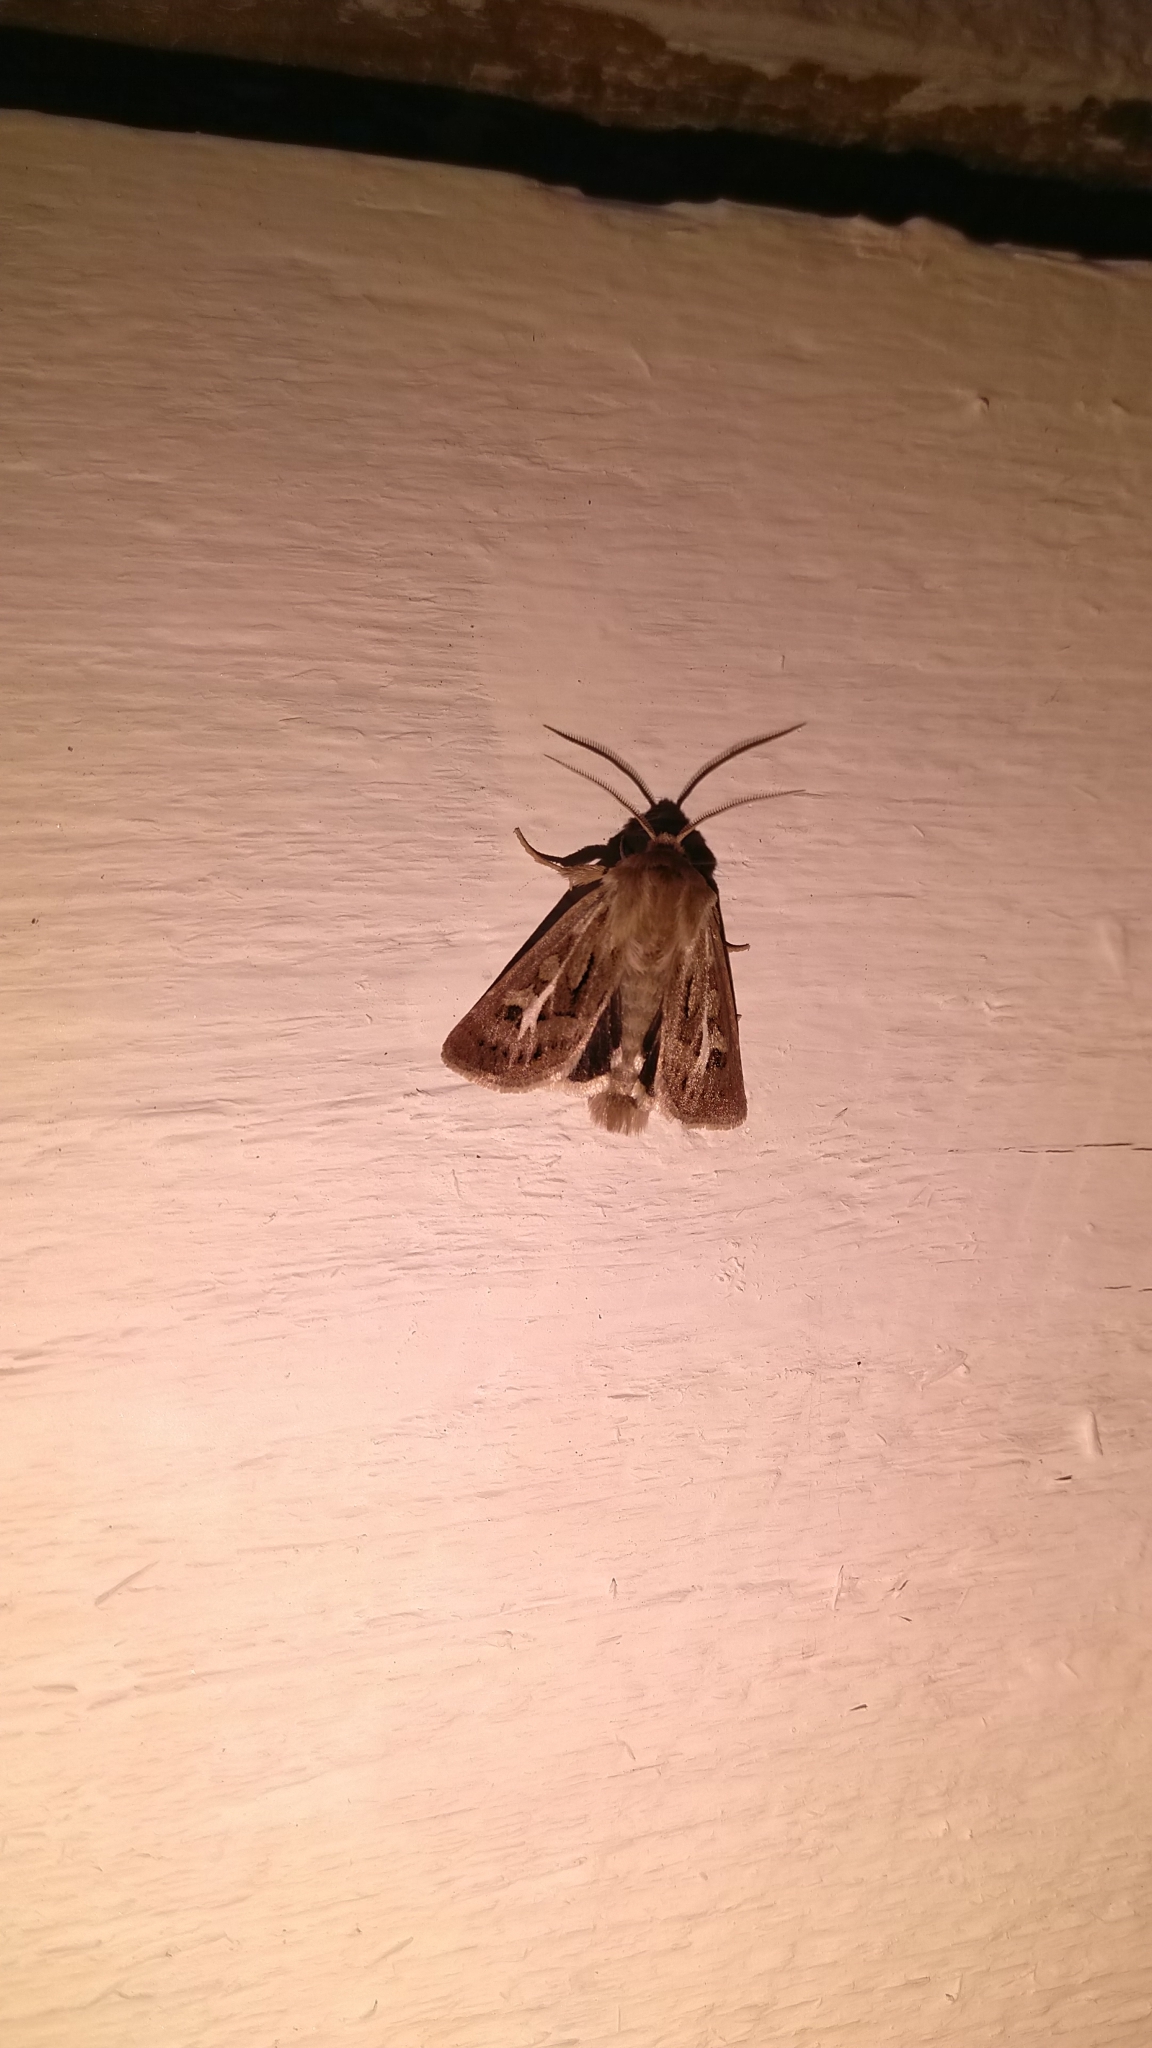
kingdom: Animalia
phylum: Arthropoda
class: Insecta
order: Lepidoptera
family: Noctuidae
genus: Cerapteryx
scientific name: Cerapteryx graminis
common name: Antler moth
